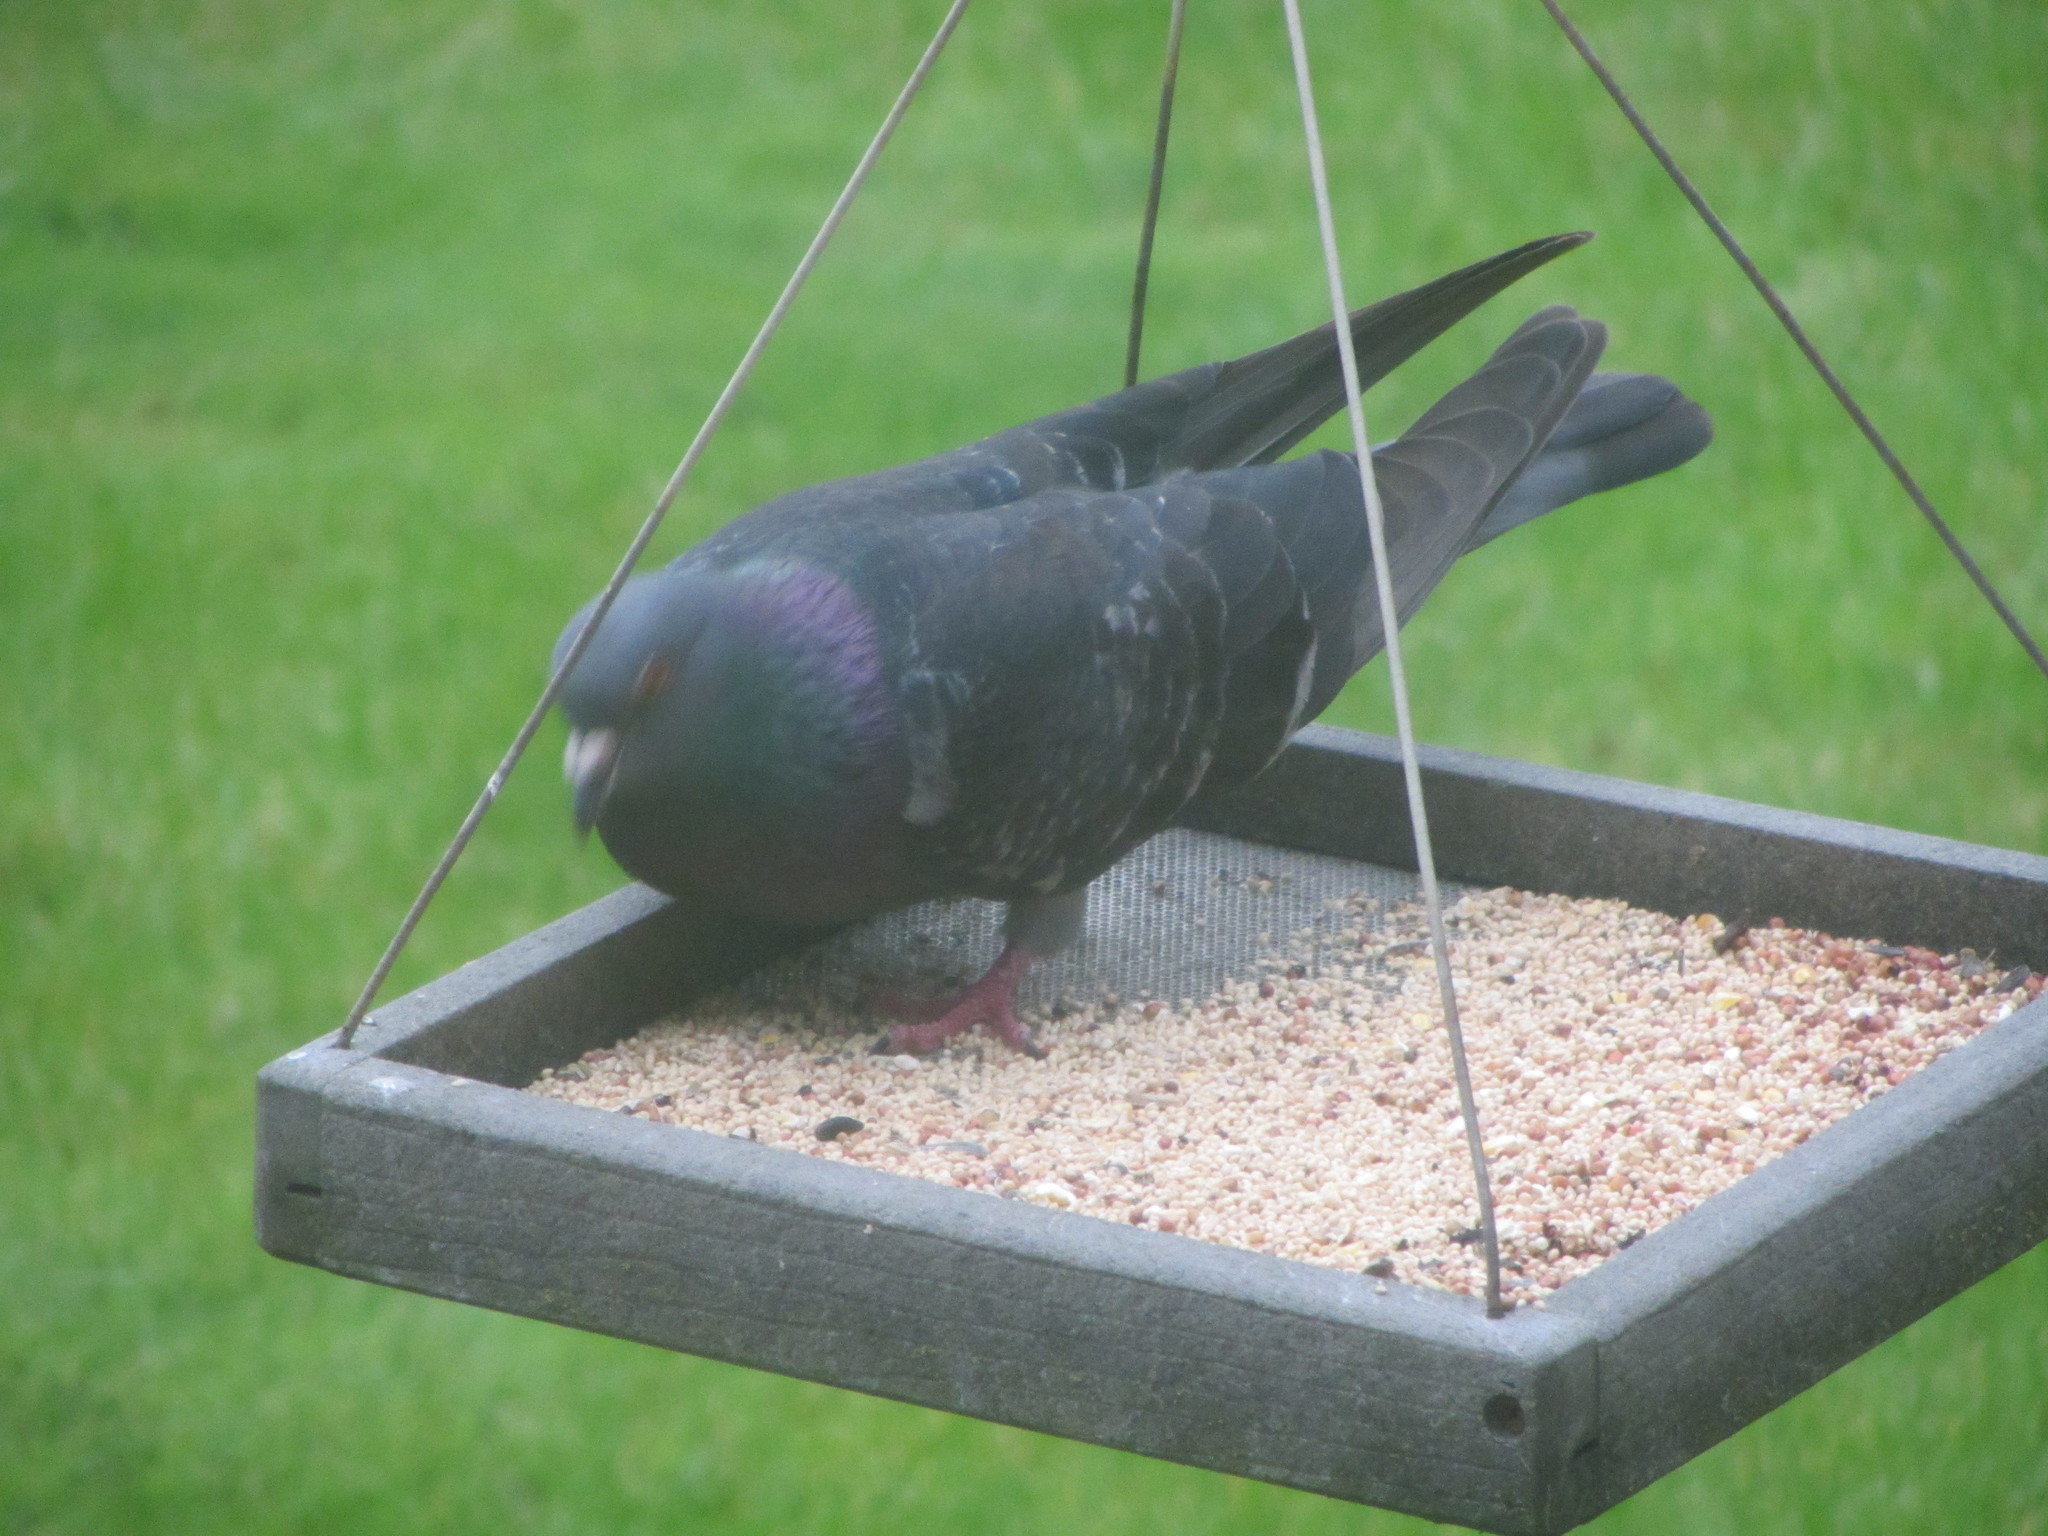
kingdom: Animalia
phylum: Chordata
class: Aves
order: Columbiformes
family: Columbidae
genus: Columba
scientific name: Columba livia
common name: Rock pigeon
